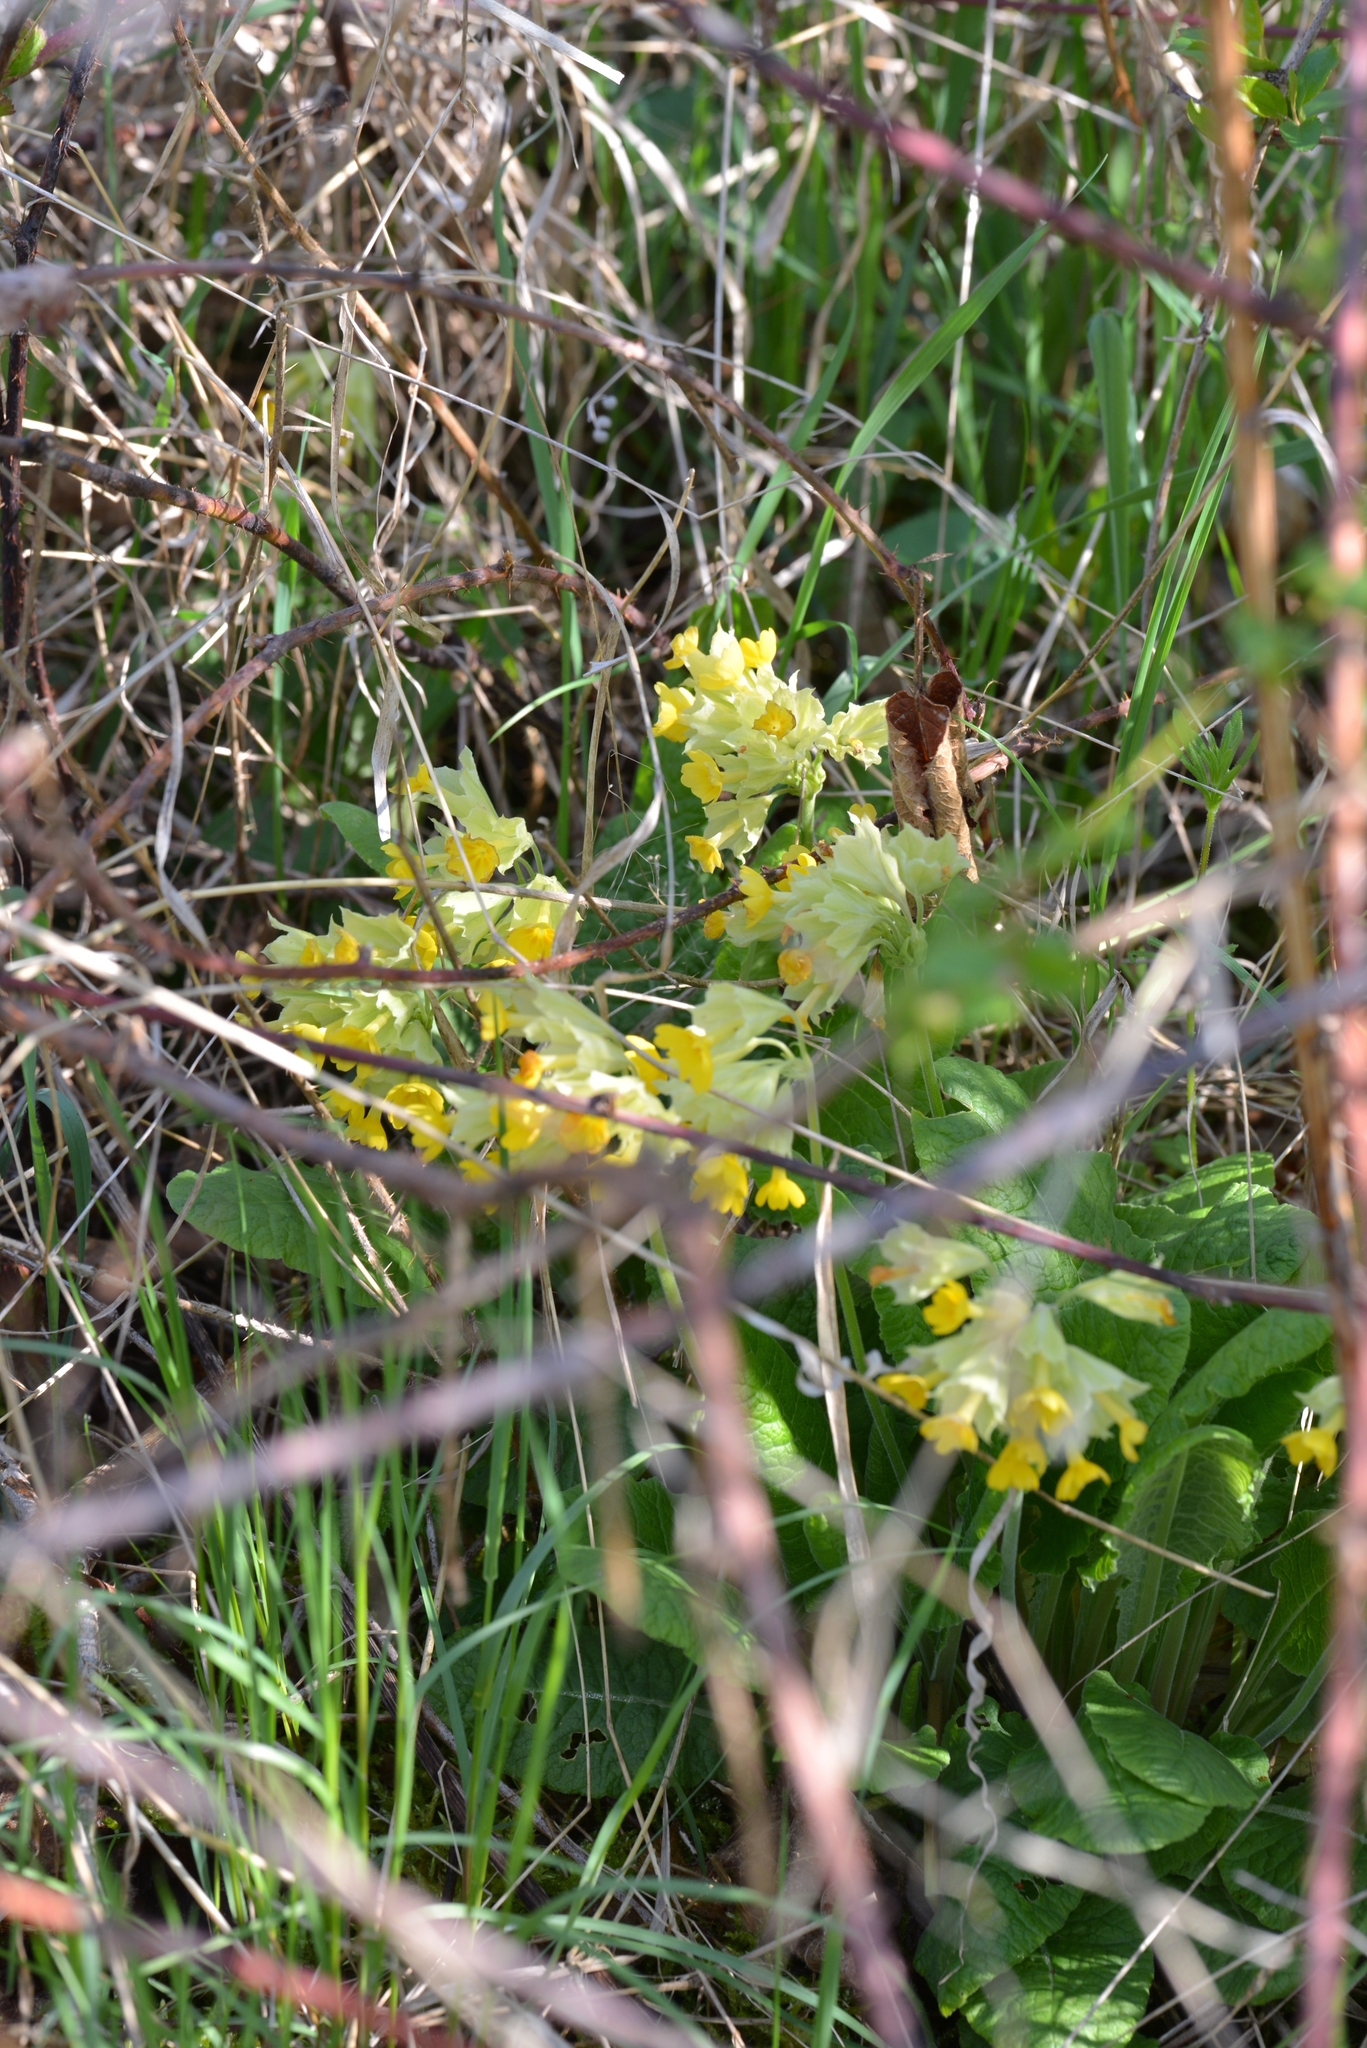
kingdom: Plantae
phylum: Tracheophyta
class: Magnoliopsida
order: Ericales
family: Primulaceae
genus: Primula
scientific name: Primula veris
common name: Cowslip
